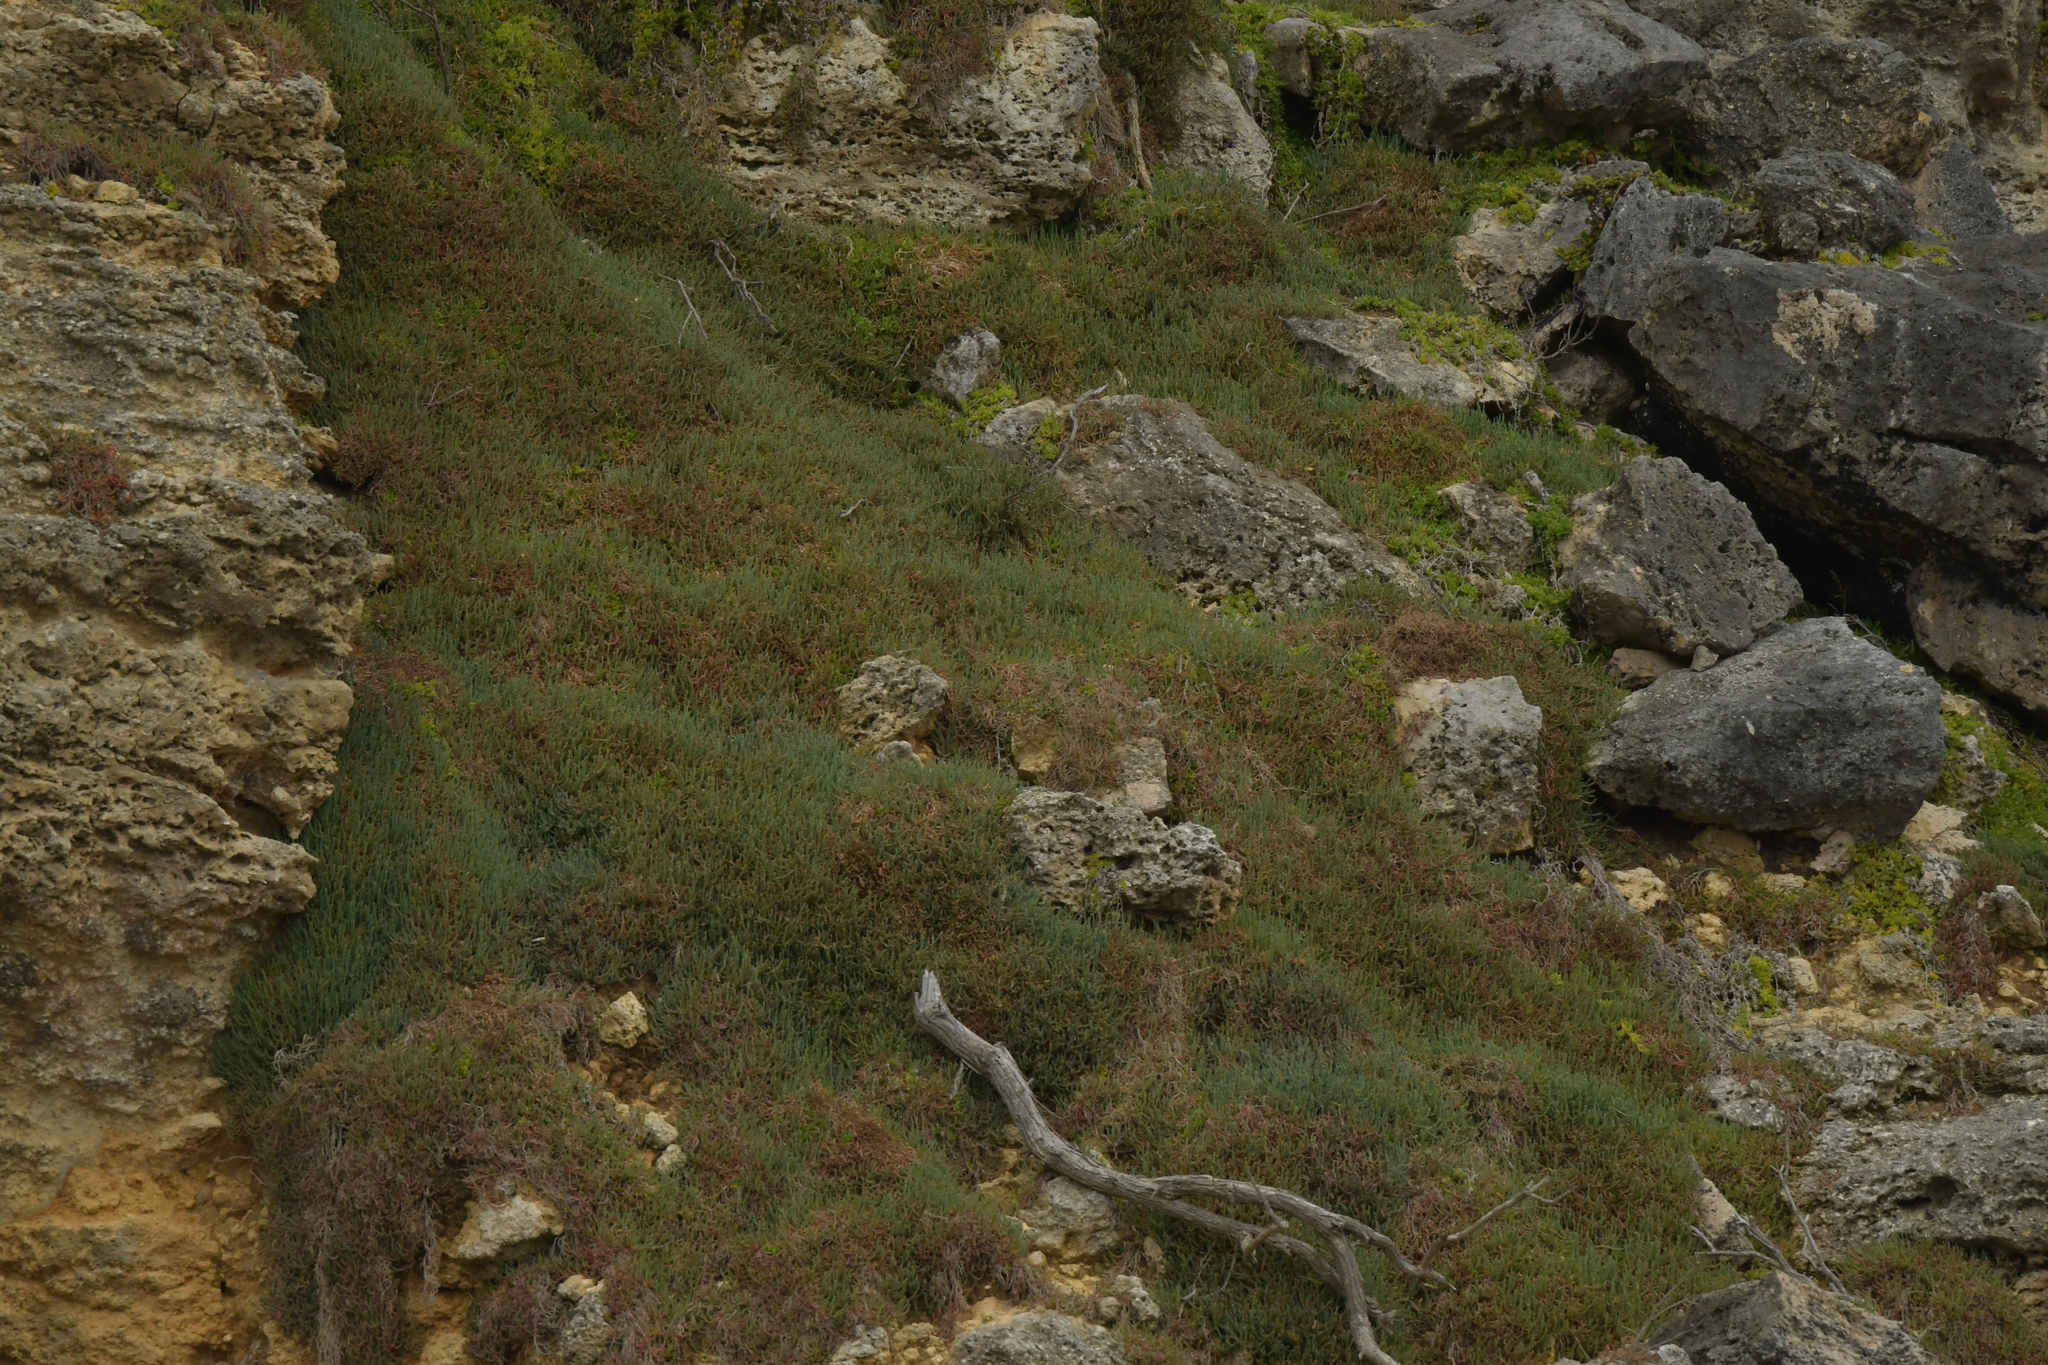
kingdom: Plantae
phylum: Tracheophyta
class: Magnoliopsida
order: Caryophyllales
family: Amaranthaceae
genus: Salicornia
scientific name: Salicornia quinqueflora
